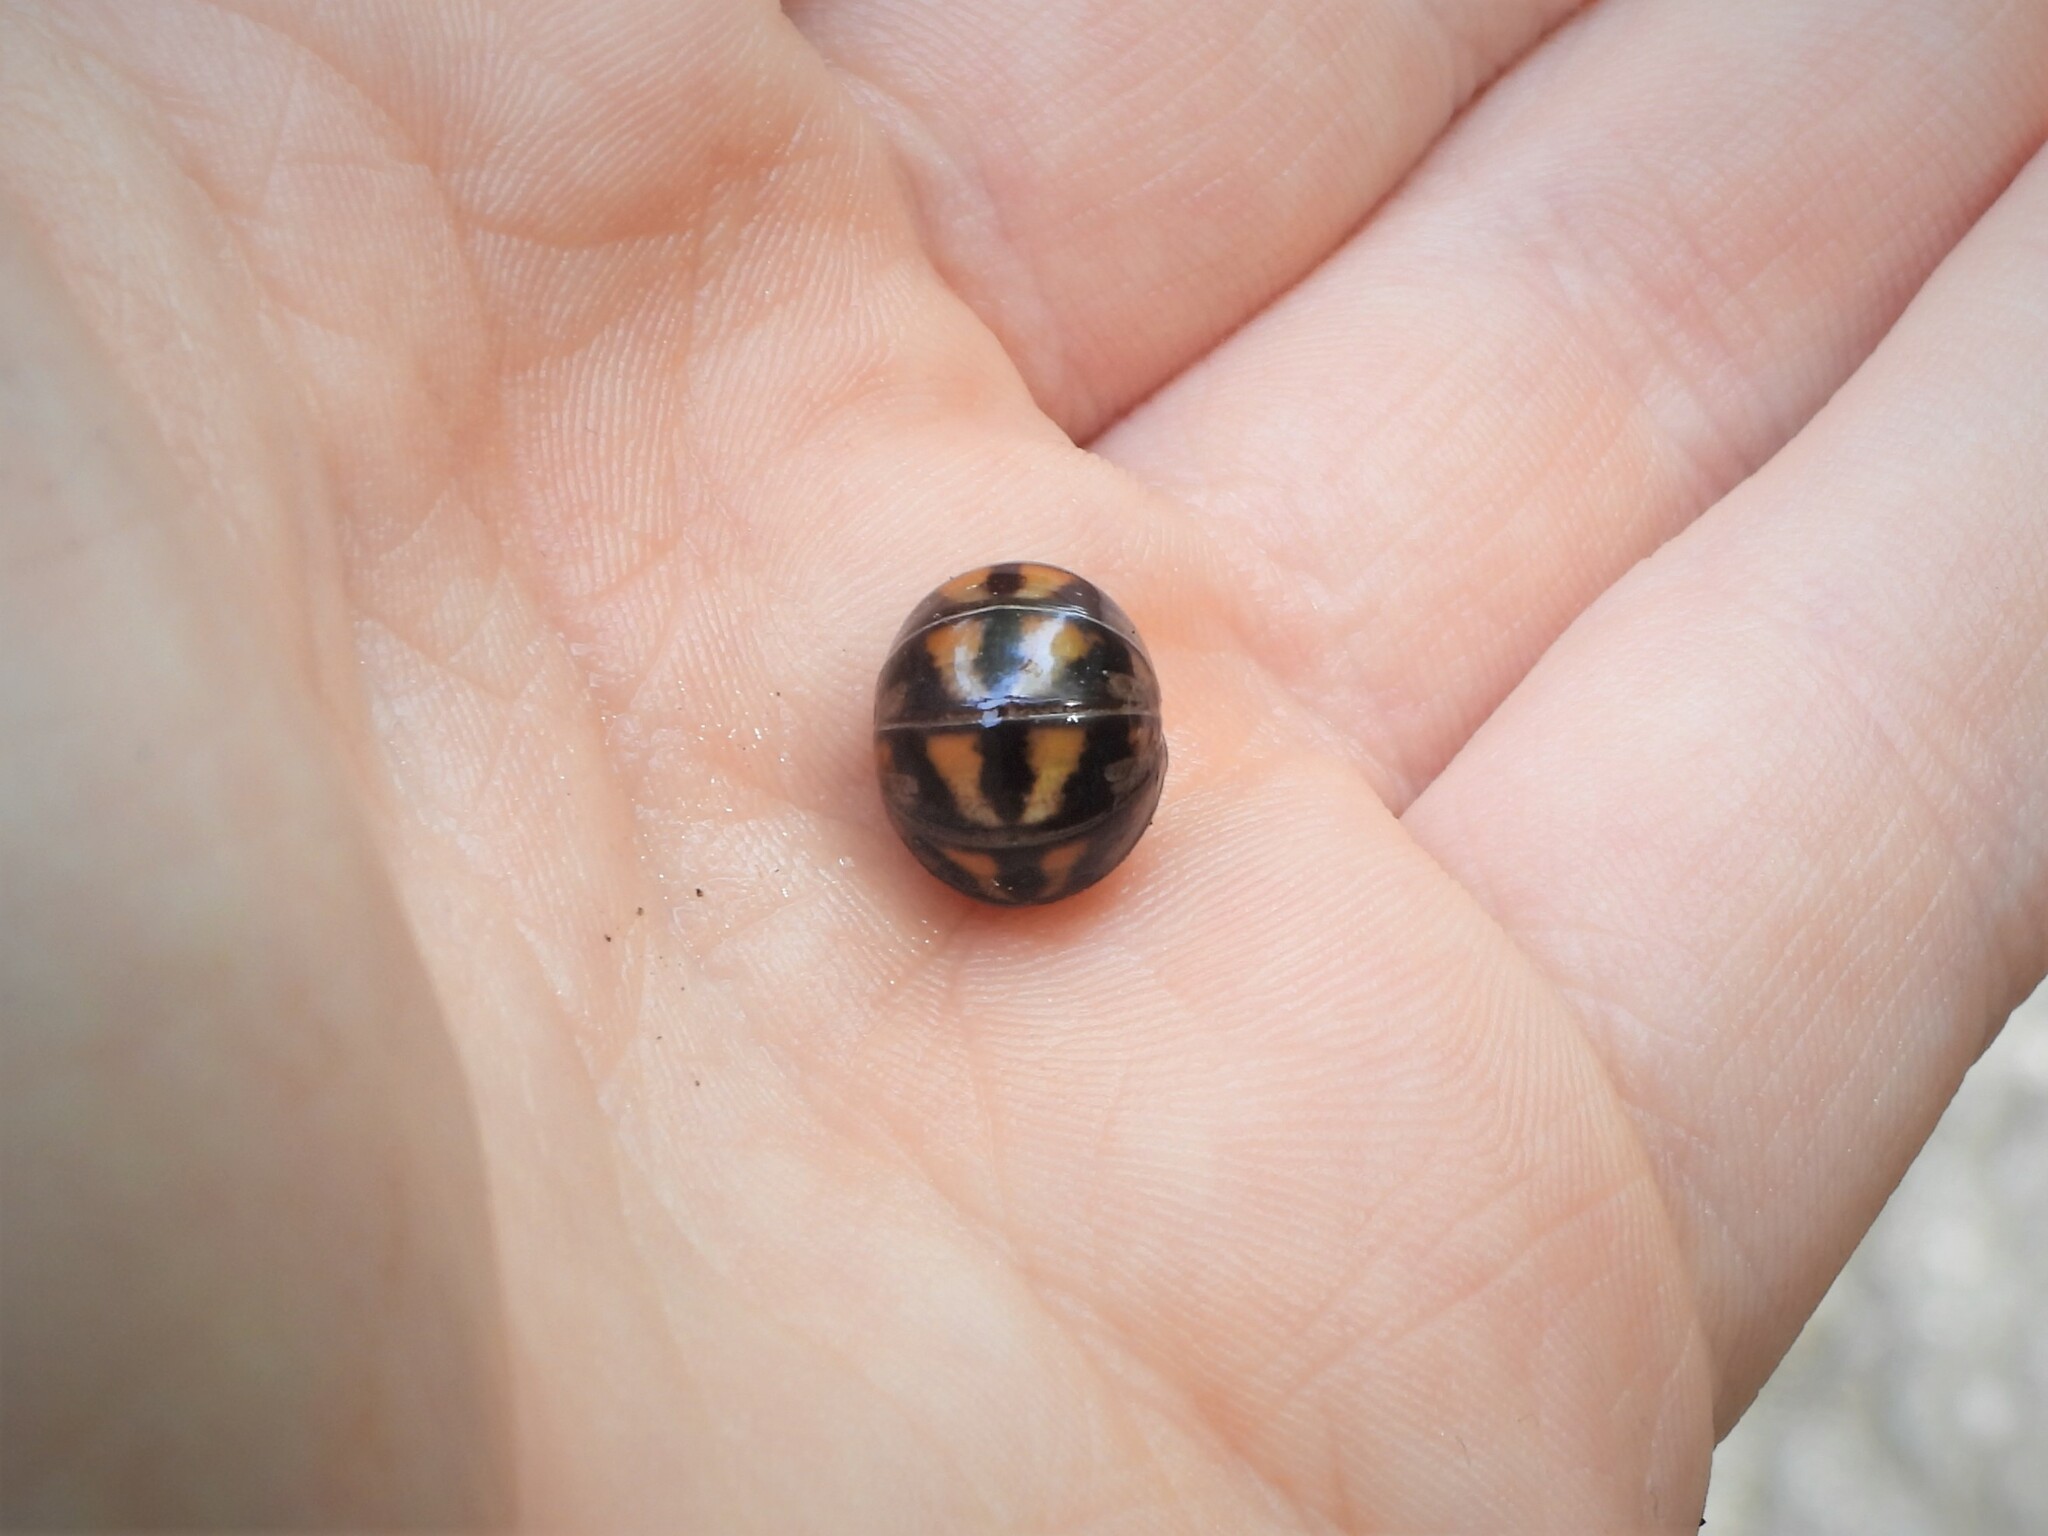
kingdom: Animalia
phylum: Arthropoda
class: Diplopoda
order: Glomerida
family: Glomeridae
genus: Glomeris
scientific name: Glomeris connexa
